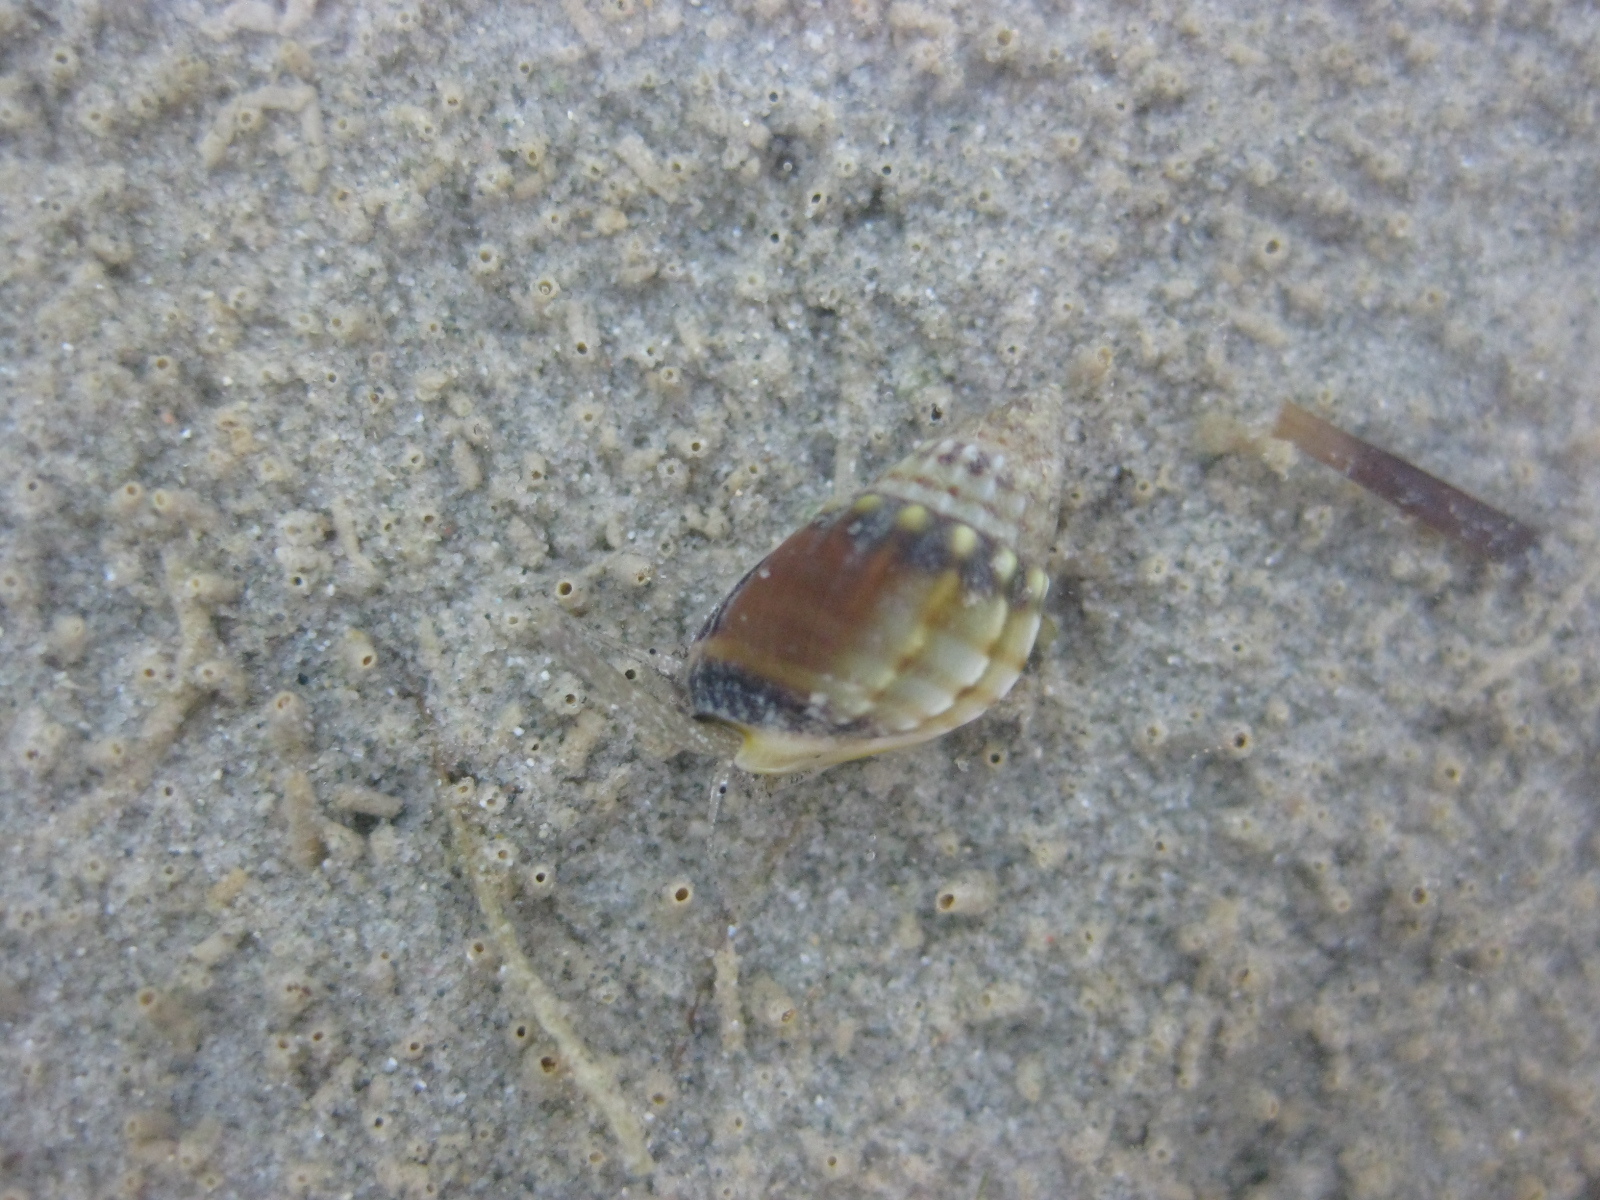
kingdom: Animalia
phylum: Mollusca
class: Gastropoda
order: Neogastropoda
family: Nassariidae
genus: Tritia
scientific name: Tritia burchardi
